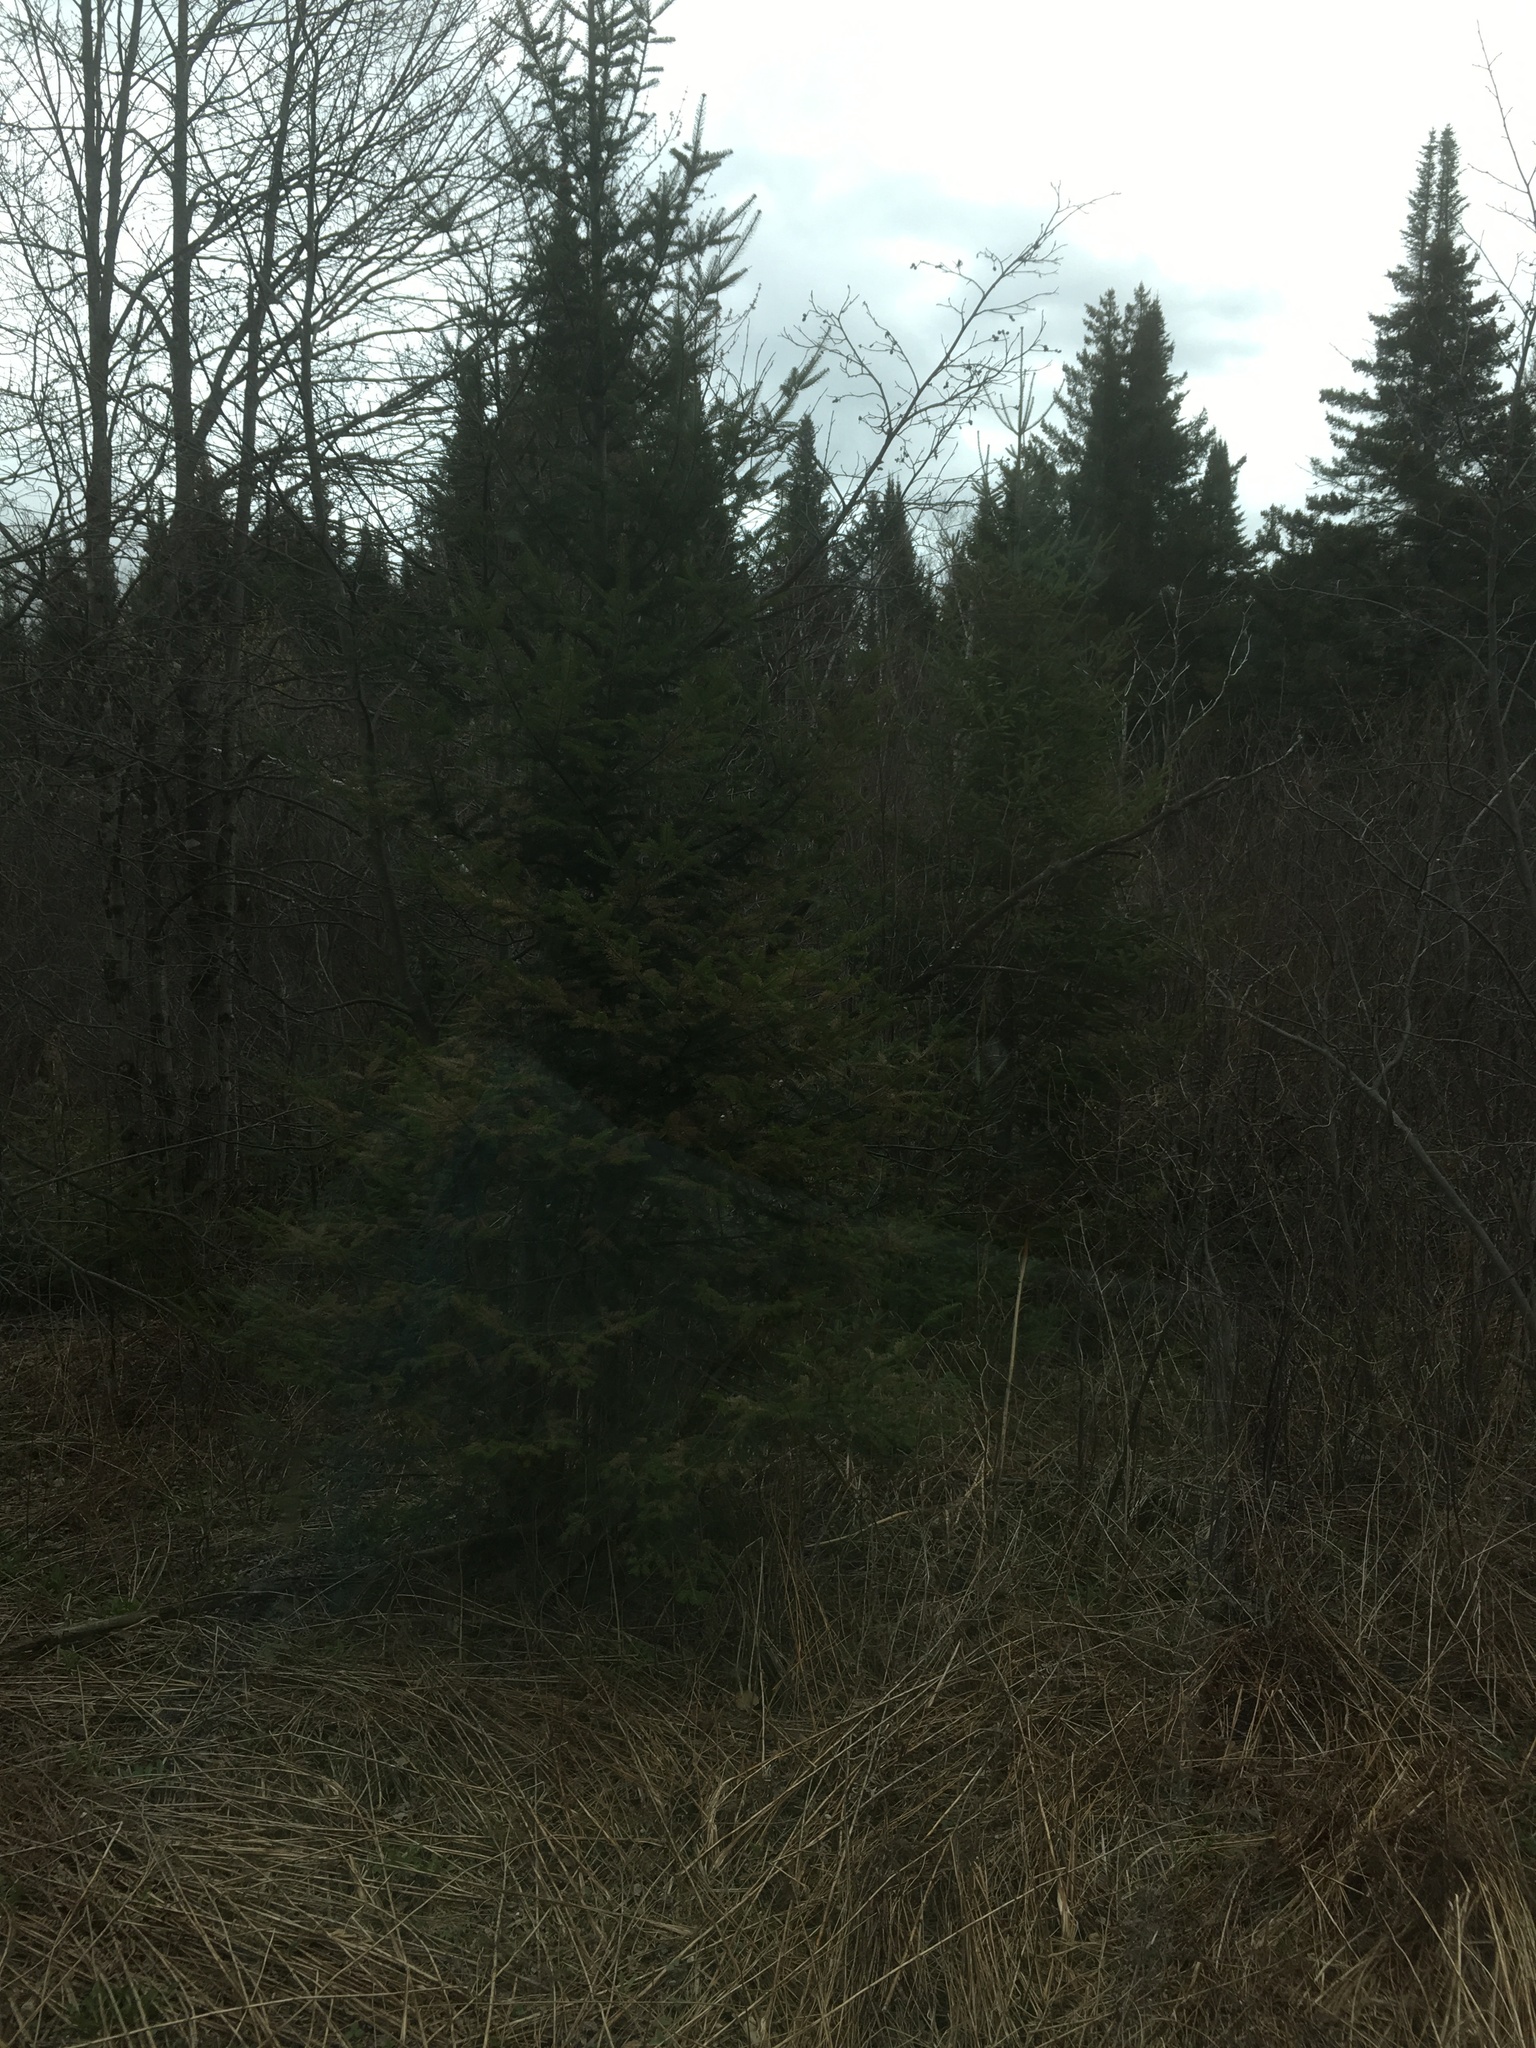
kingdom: Plantae
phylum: Tracheophyta
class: Pinopsida
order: Pinales
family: Pinaceae
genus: Abies
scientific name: Abies balsamea
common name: Balsam fir
